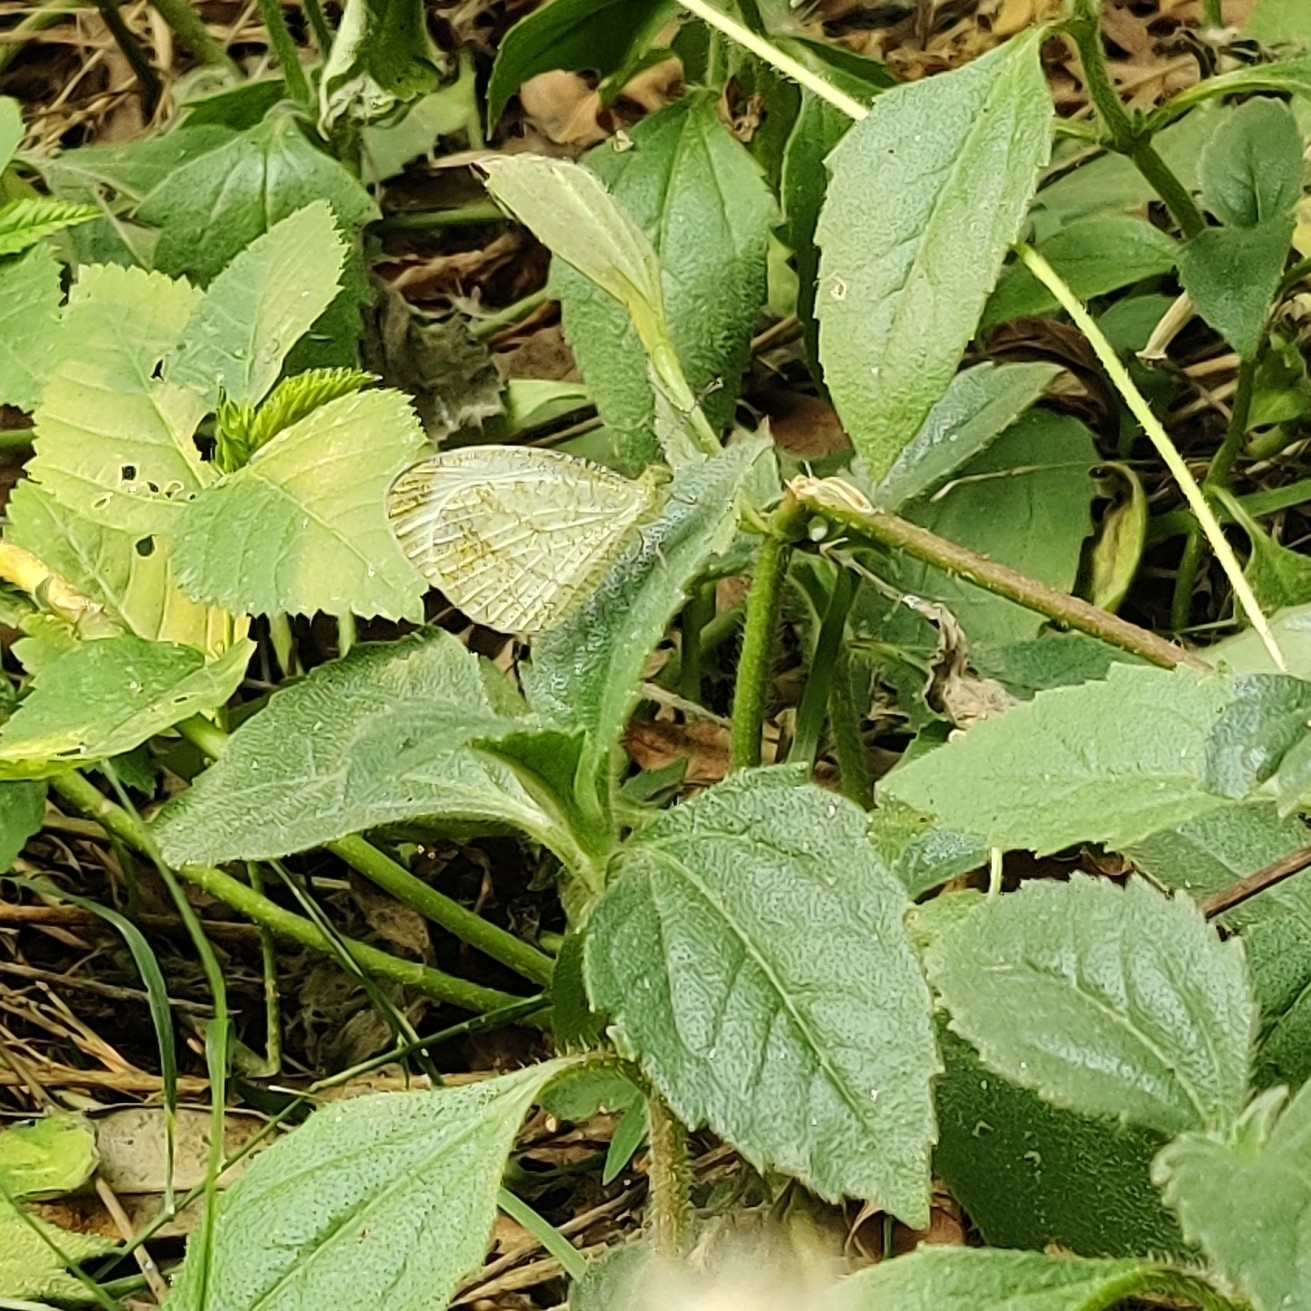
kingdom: Animalia
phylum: Arthropoda
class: Insecta
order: Lepidoptera
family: Pieridae
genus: Leptosia
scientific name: Leptosia nina
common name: Psyche
